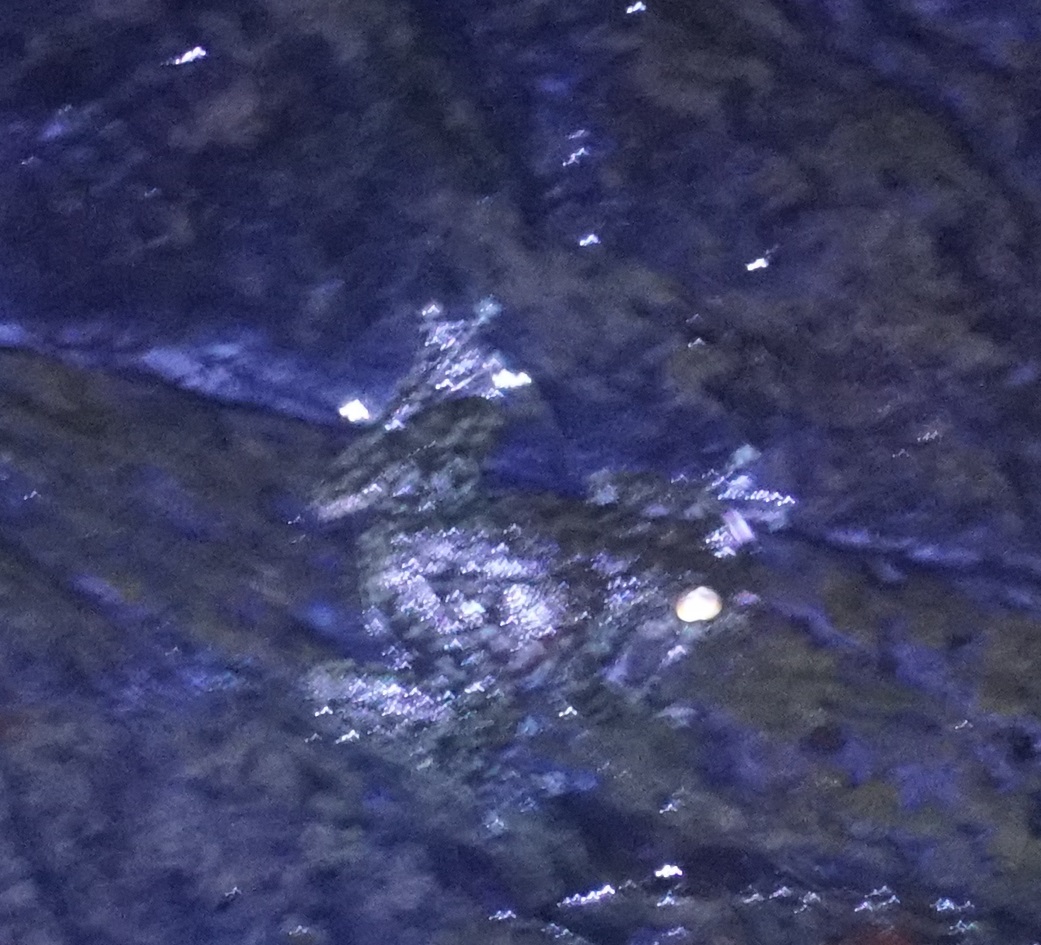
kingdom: Animalia
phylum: Chordata
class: Amphibia
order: Anura
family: Pelodryadidae
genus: Ranoidea
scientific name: Ranoidea nannotis
